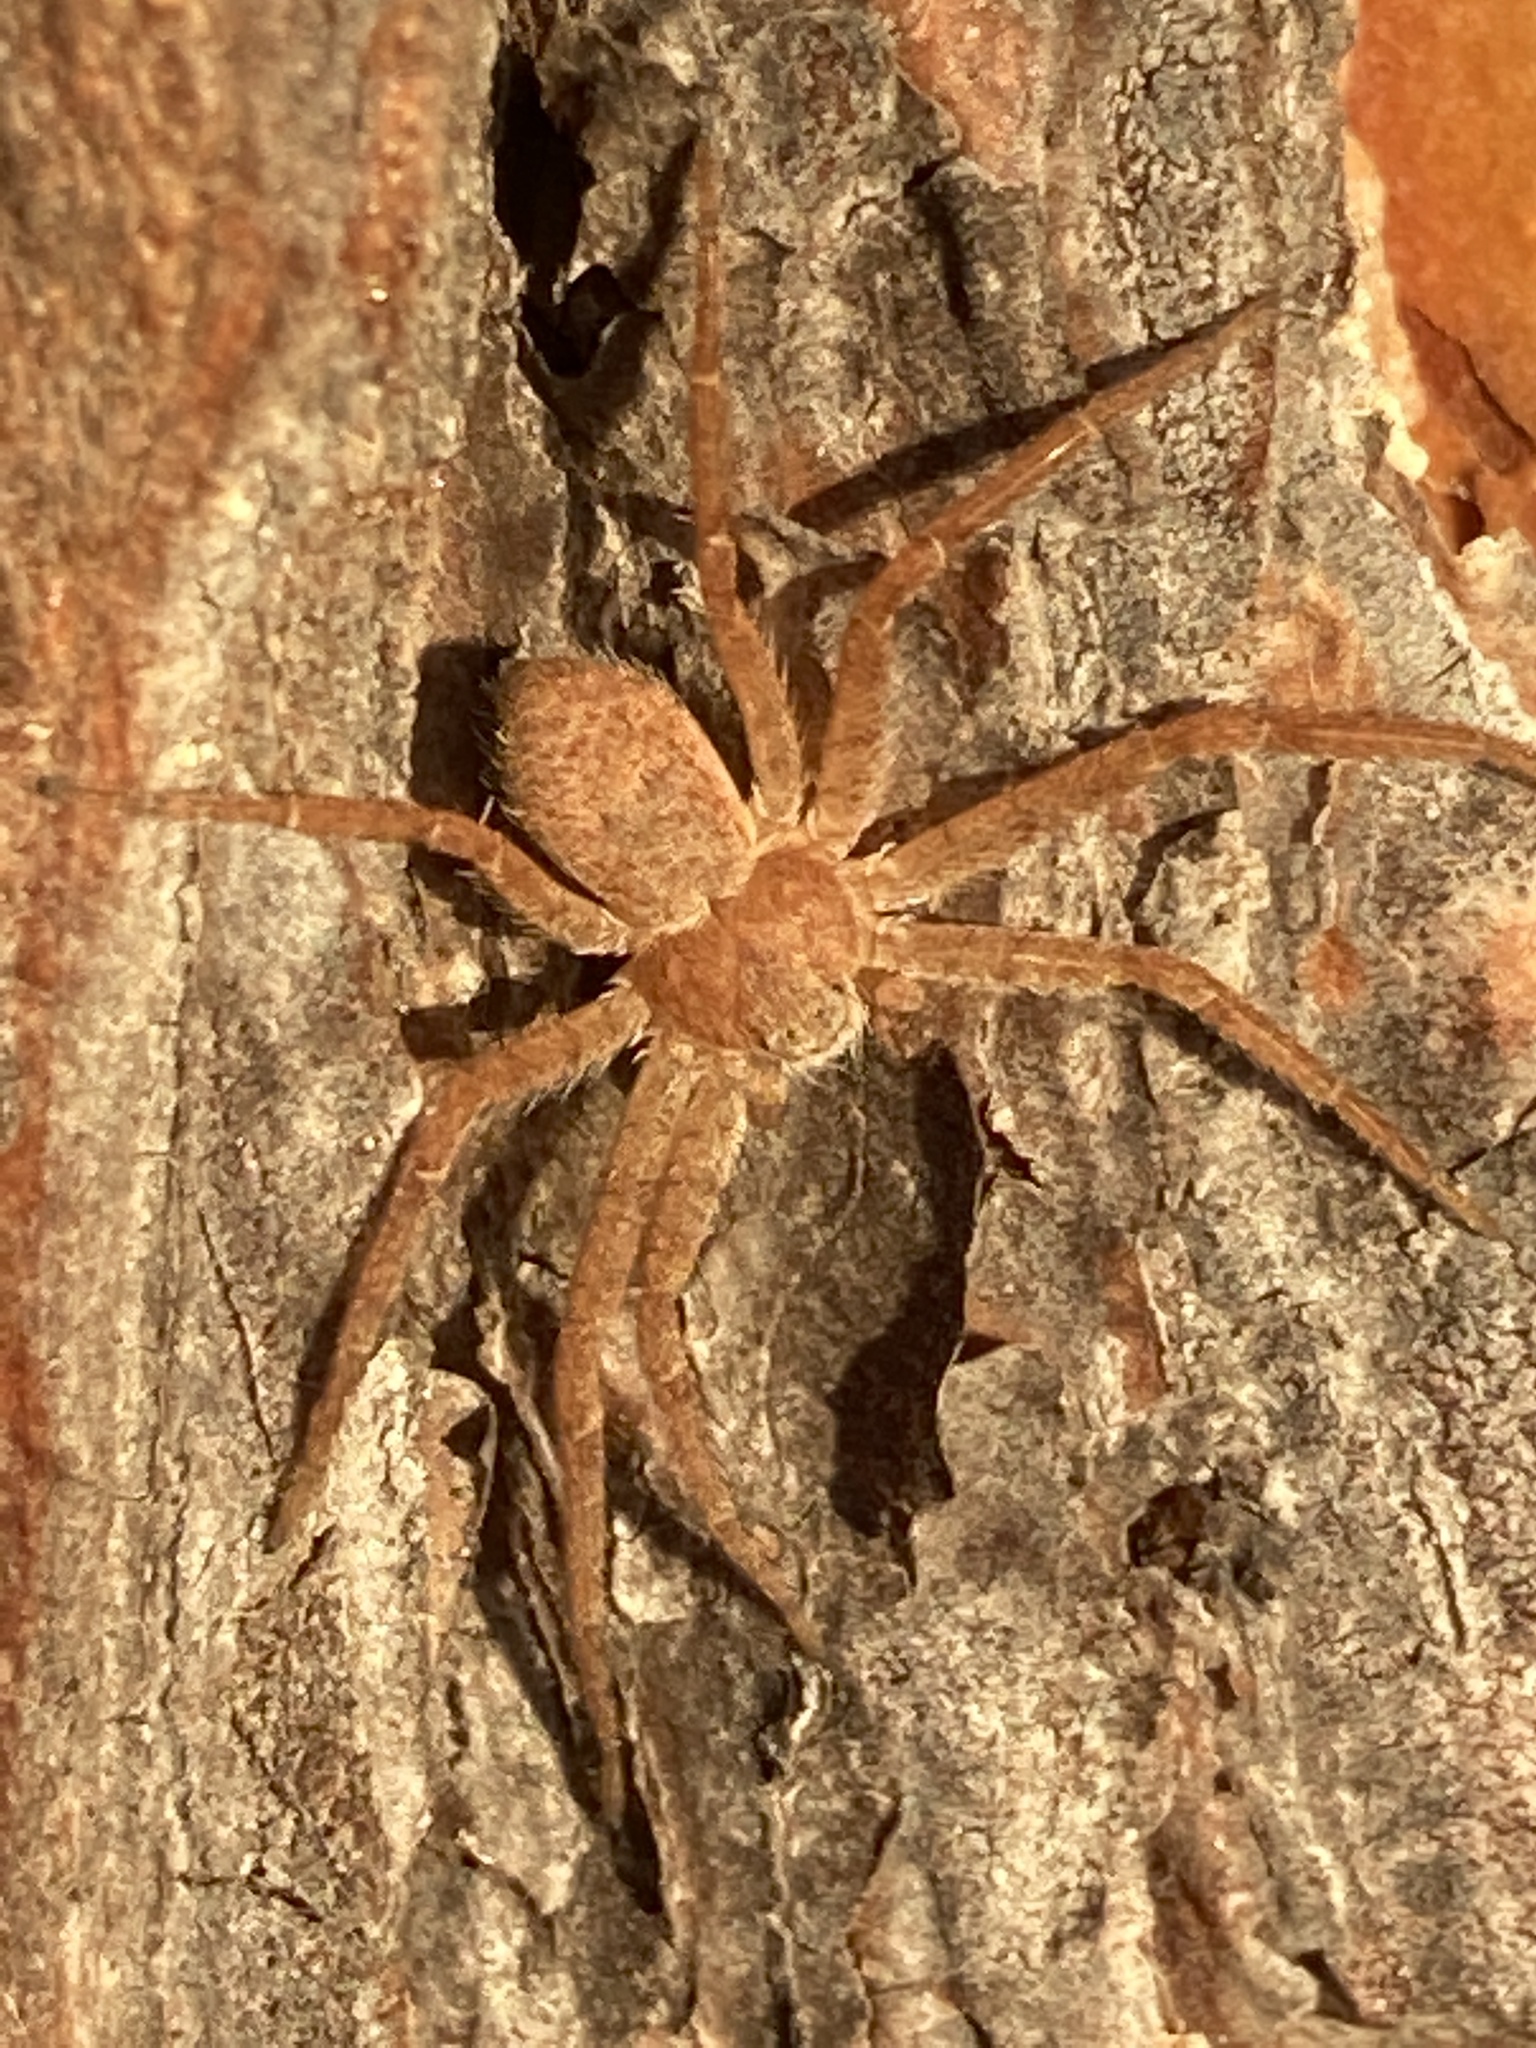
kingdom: Animalia
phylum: Arthropoda
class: Arachnida
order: Araneae
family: Philodromidae
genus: Philodromus
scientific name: Philodromus fuscomarginatus
